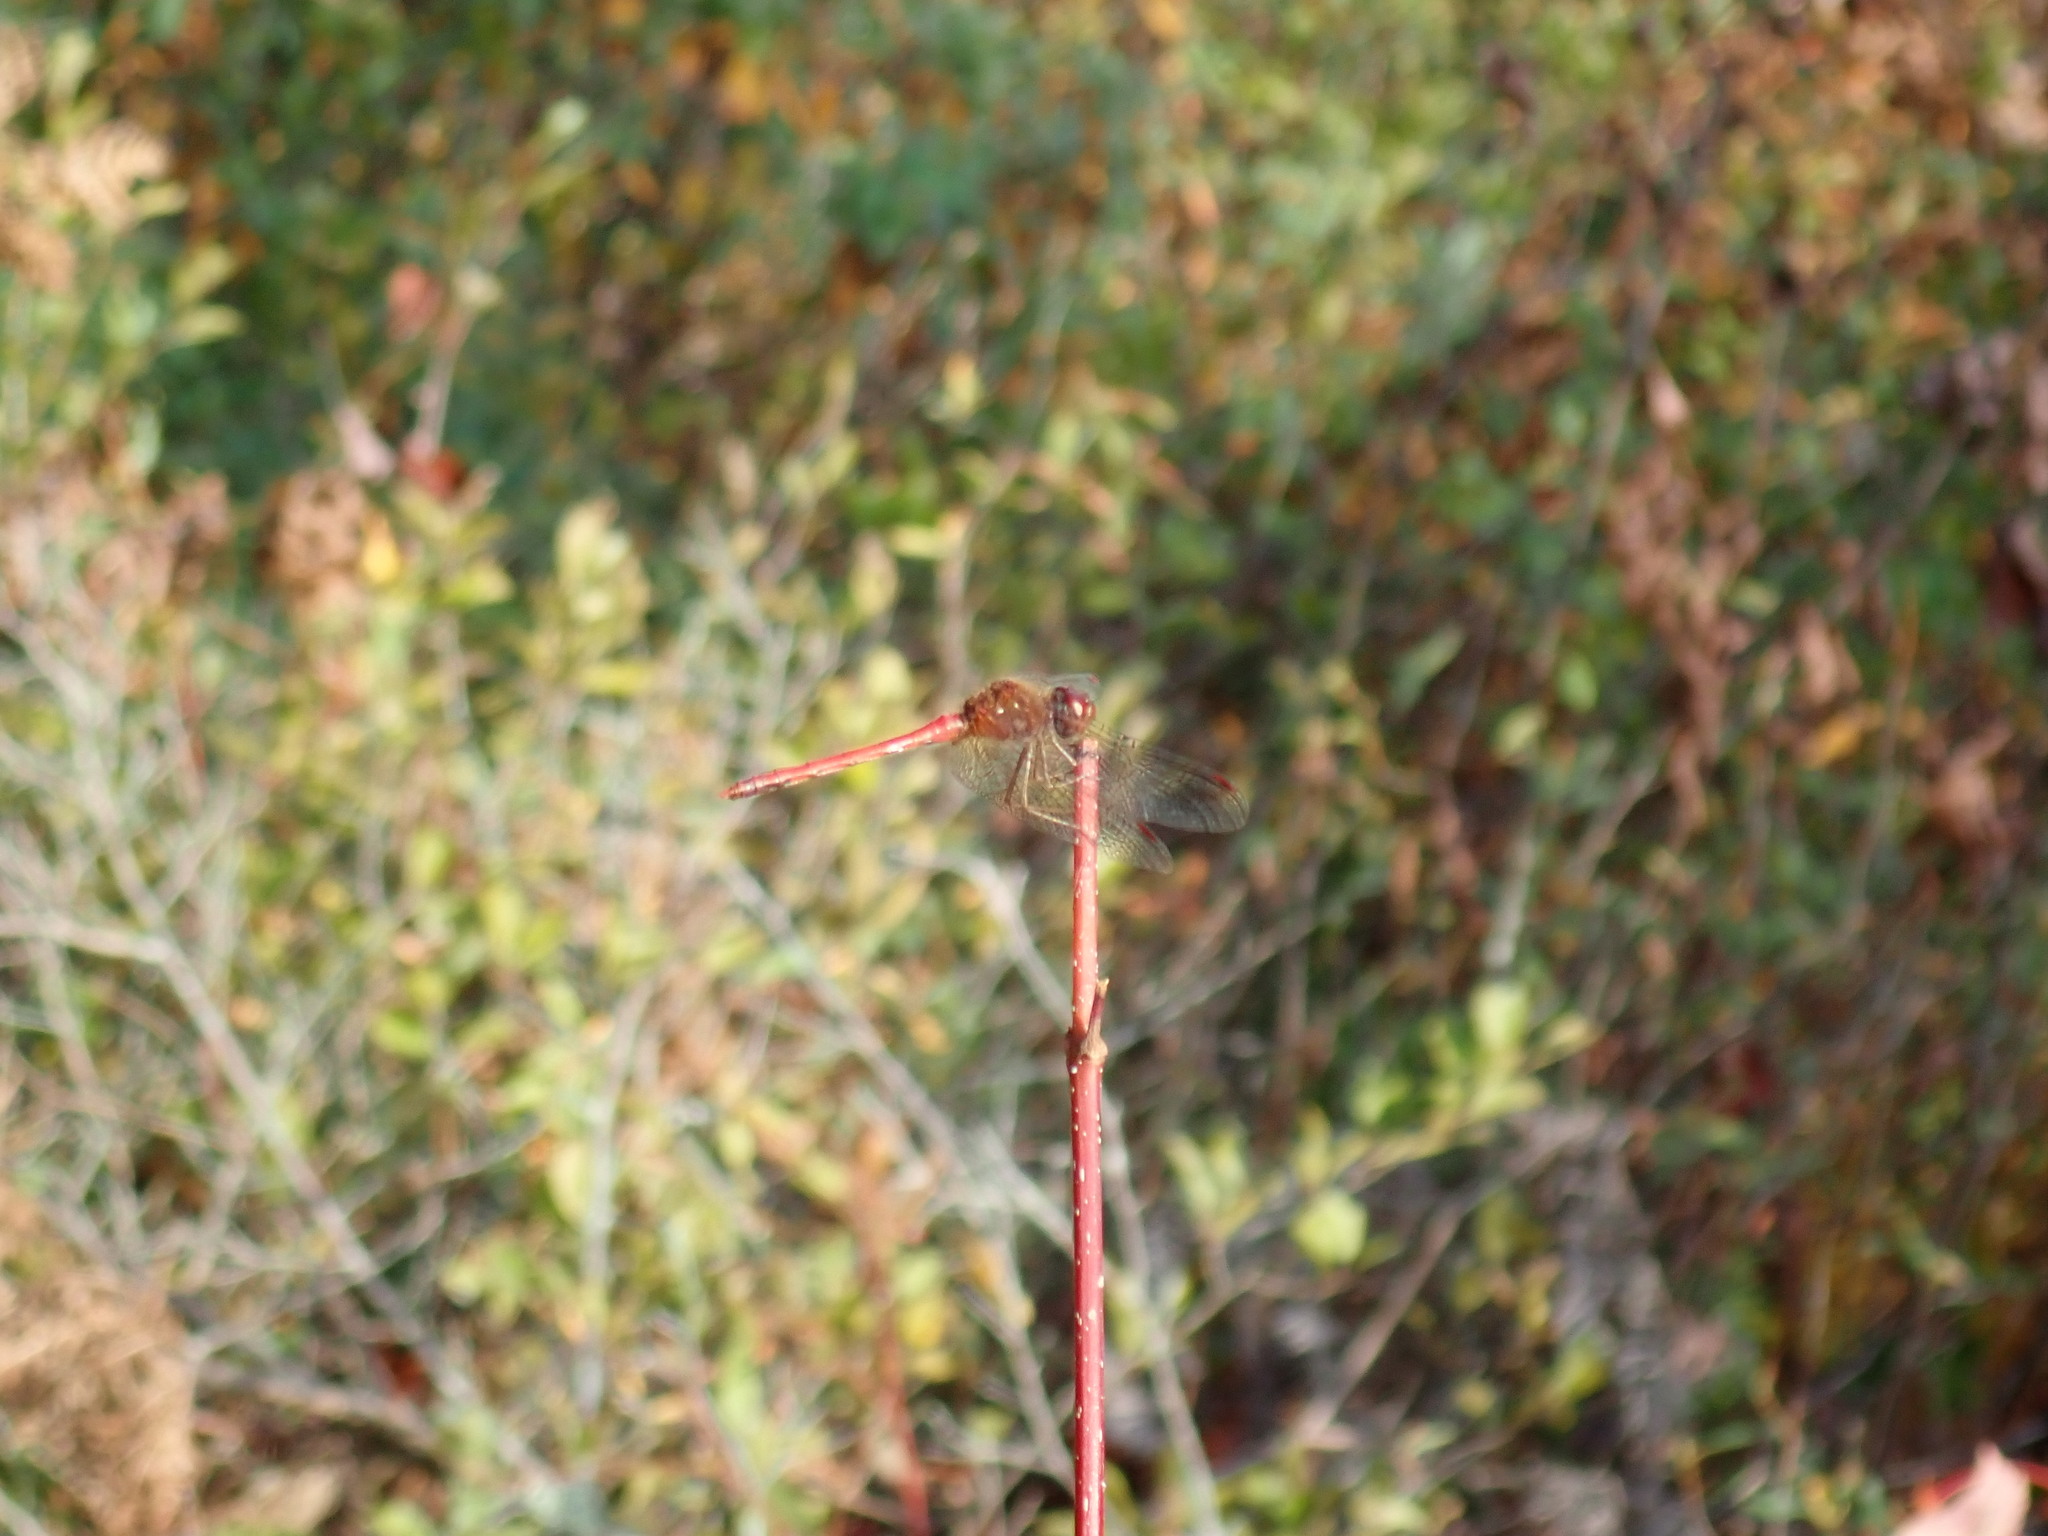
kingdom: Animalia
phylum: Arthropoda
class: Insecta
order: Odonata
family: Libellulidae
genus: Sympetrum
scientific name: Sympetrum vicinum
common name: Autumn meadowhawk
